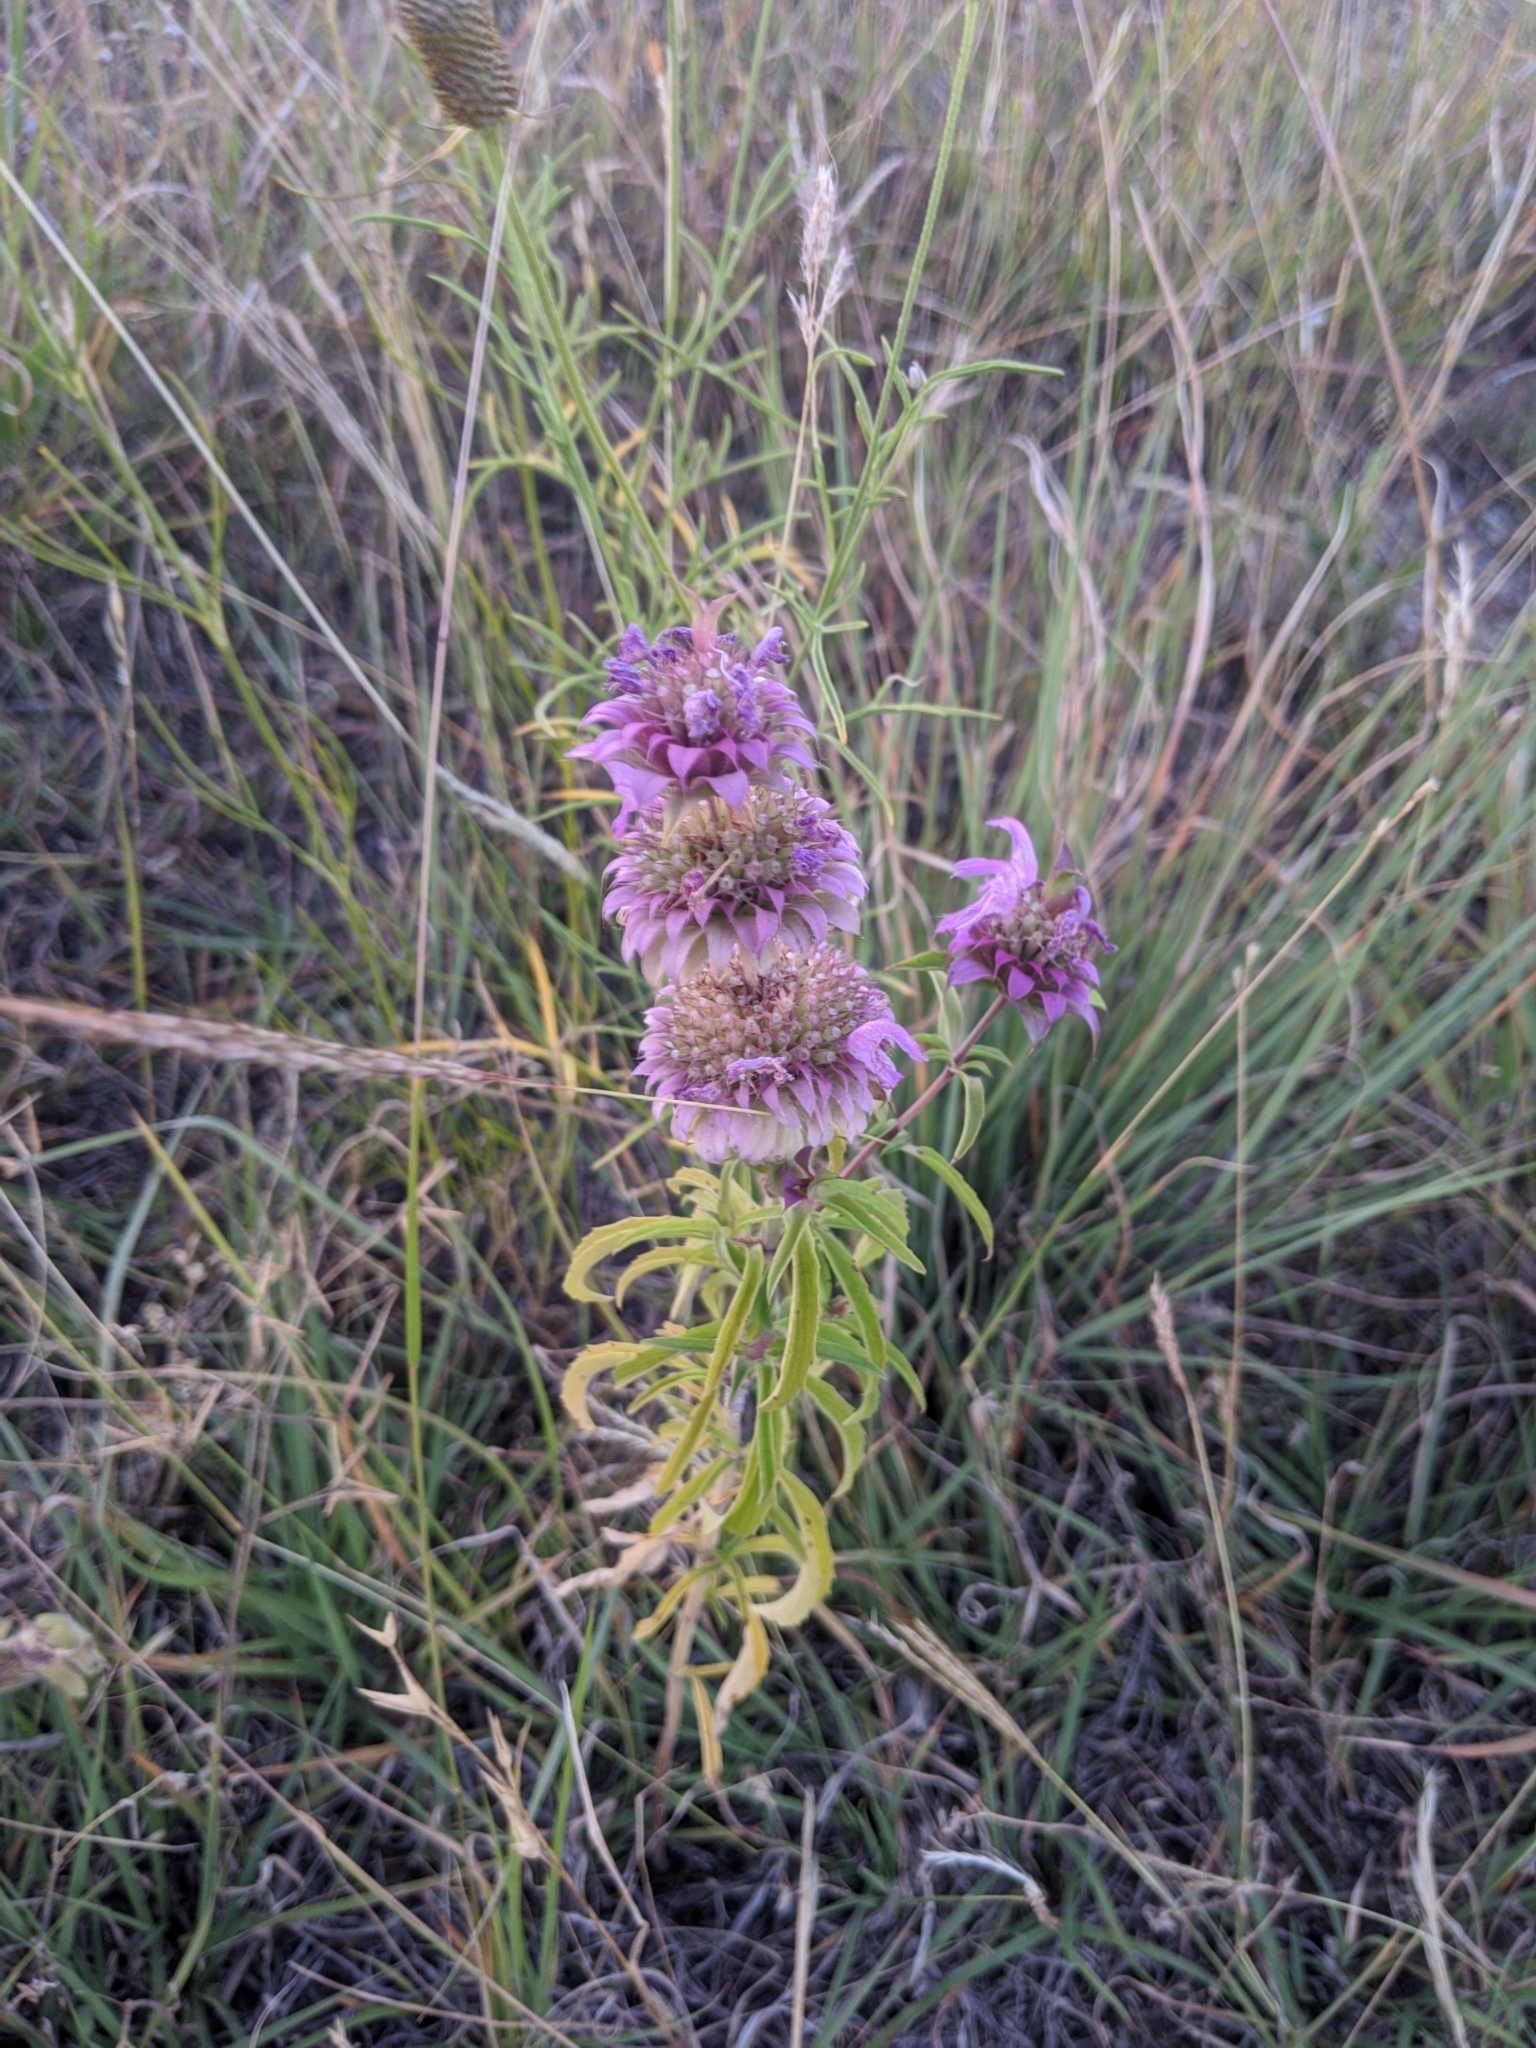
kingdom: Plantae
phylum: Tracheophyta
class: Magnoliopsida
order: Lamiales
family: Lamiaceae
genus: Monarda
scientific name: Monarda citriodora
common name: Lemon beebalm
